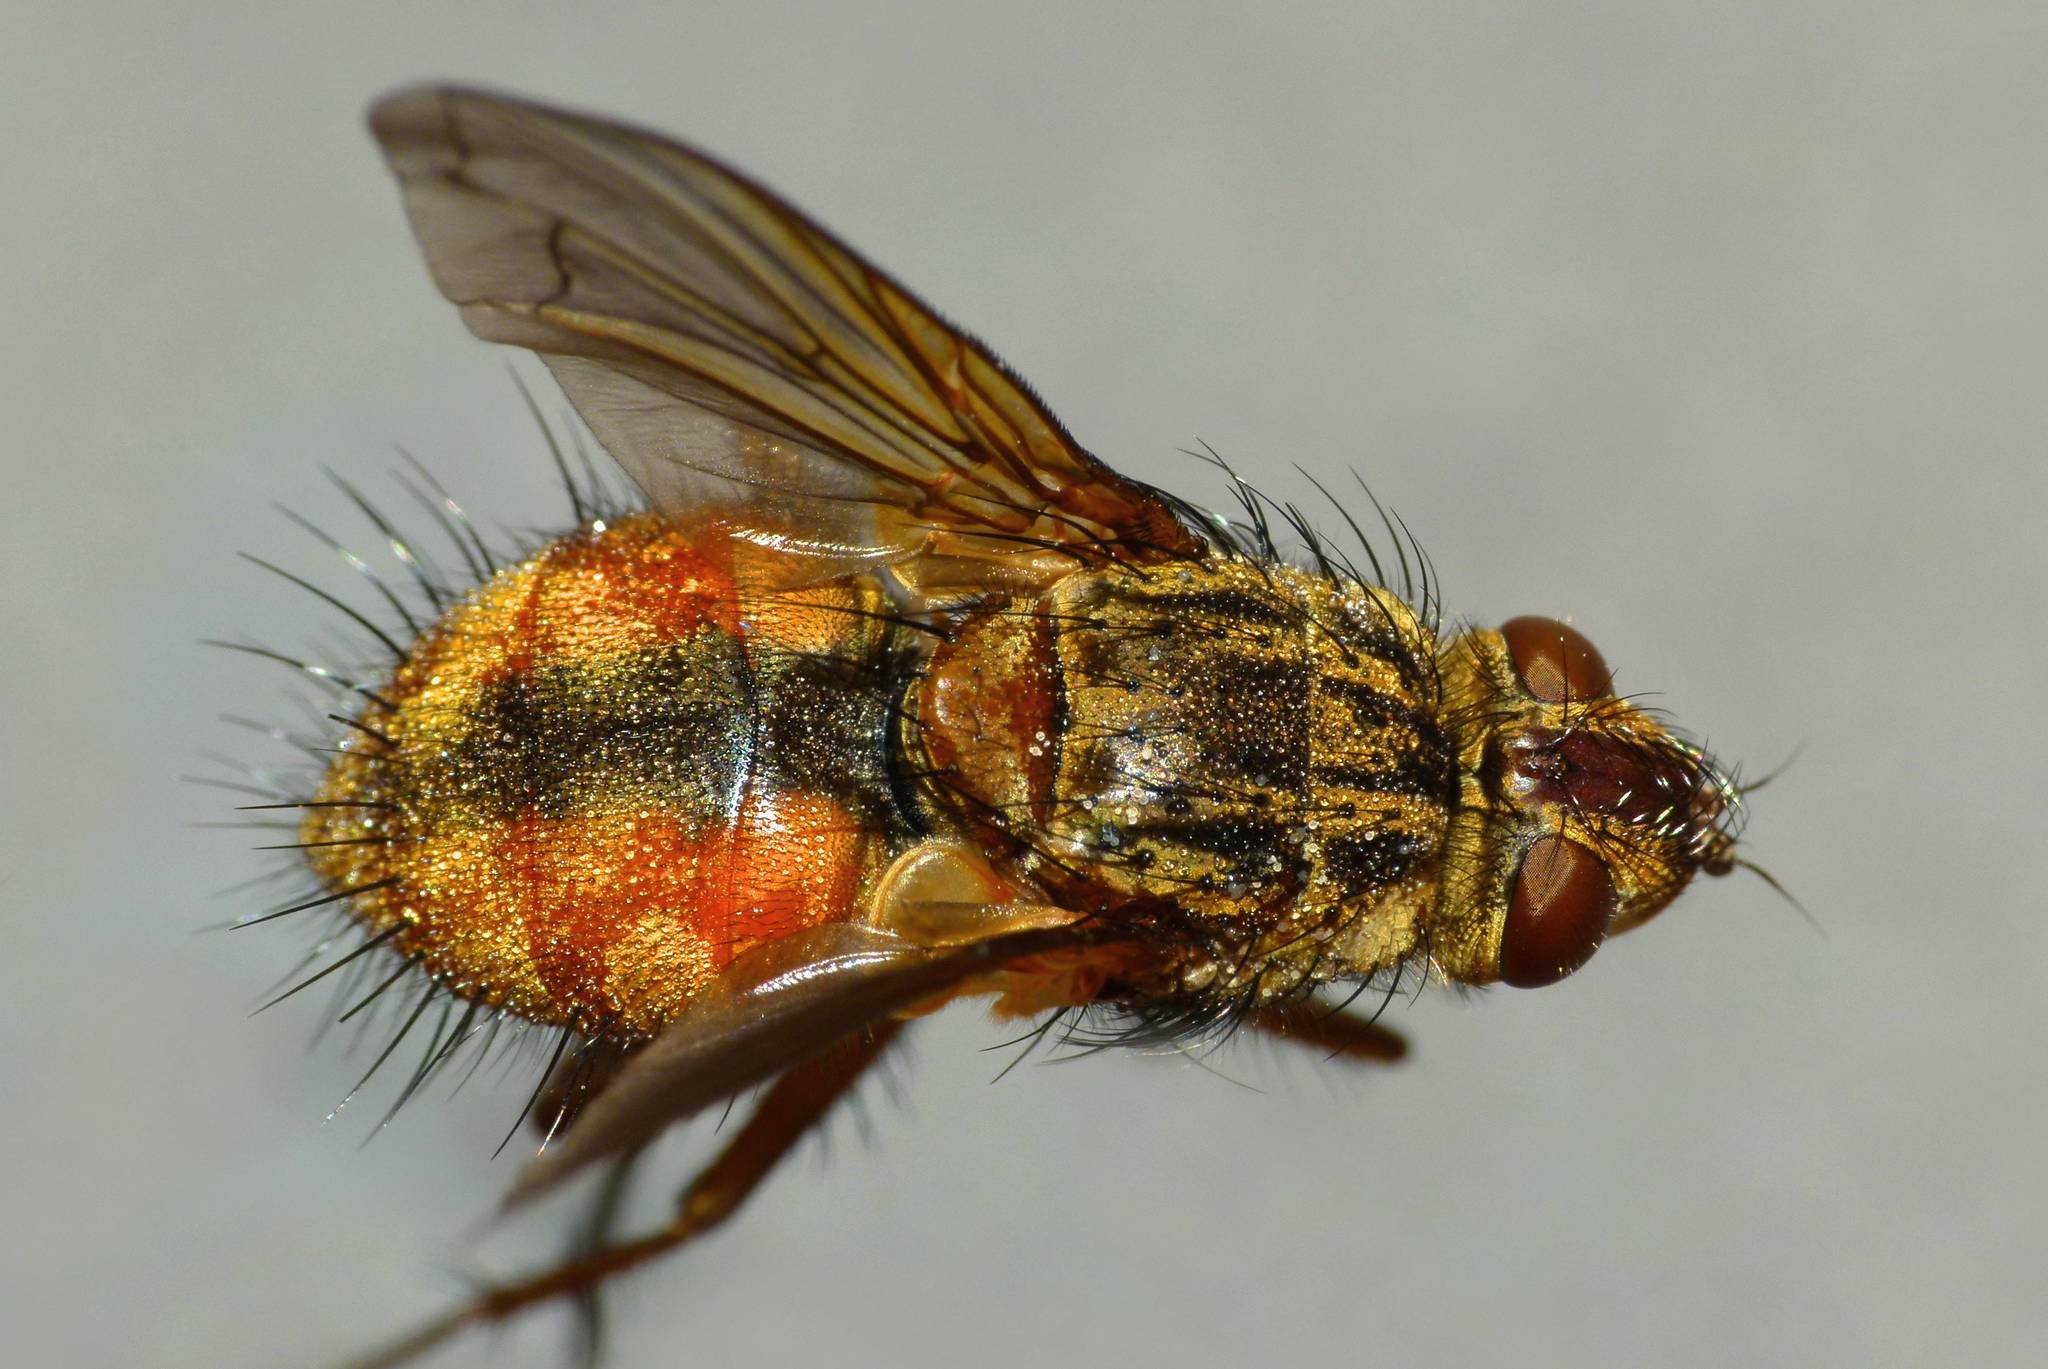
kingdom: Animalia
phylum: Arthropoda
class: Insecta
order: Diptera
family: Tachinidae
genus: Peremptor
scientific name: Peremptor kumaraensis
